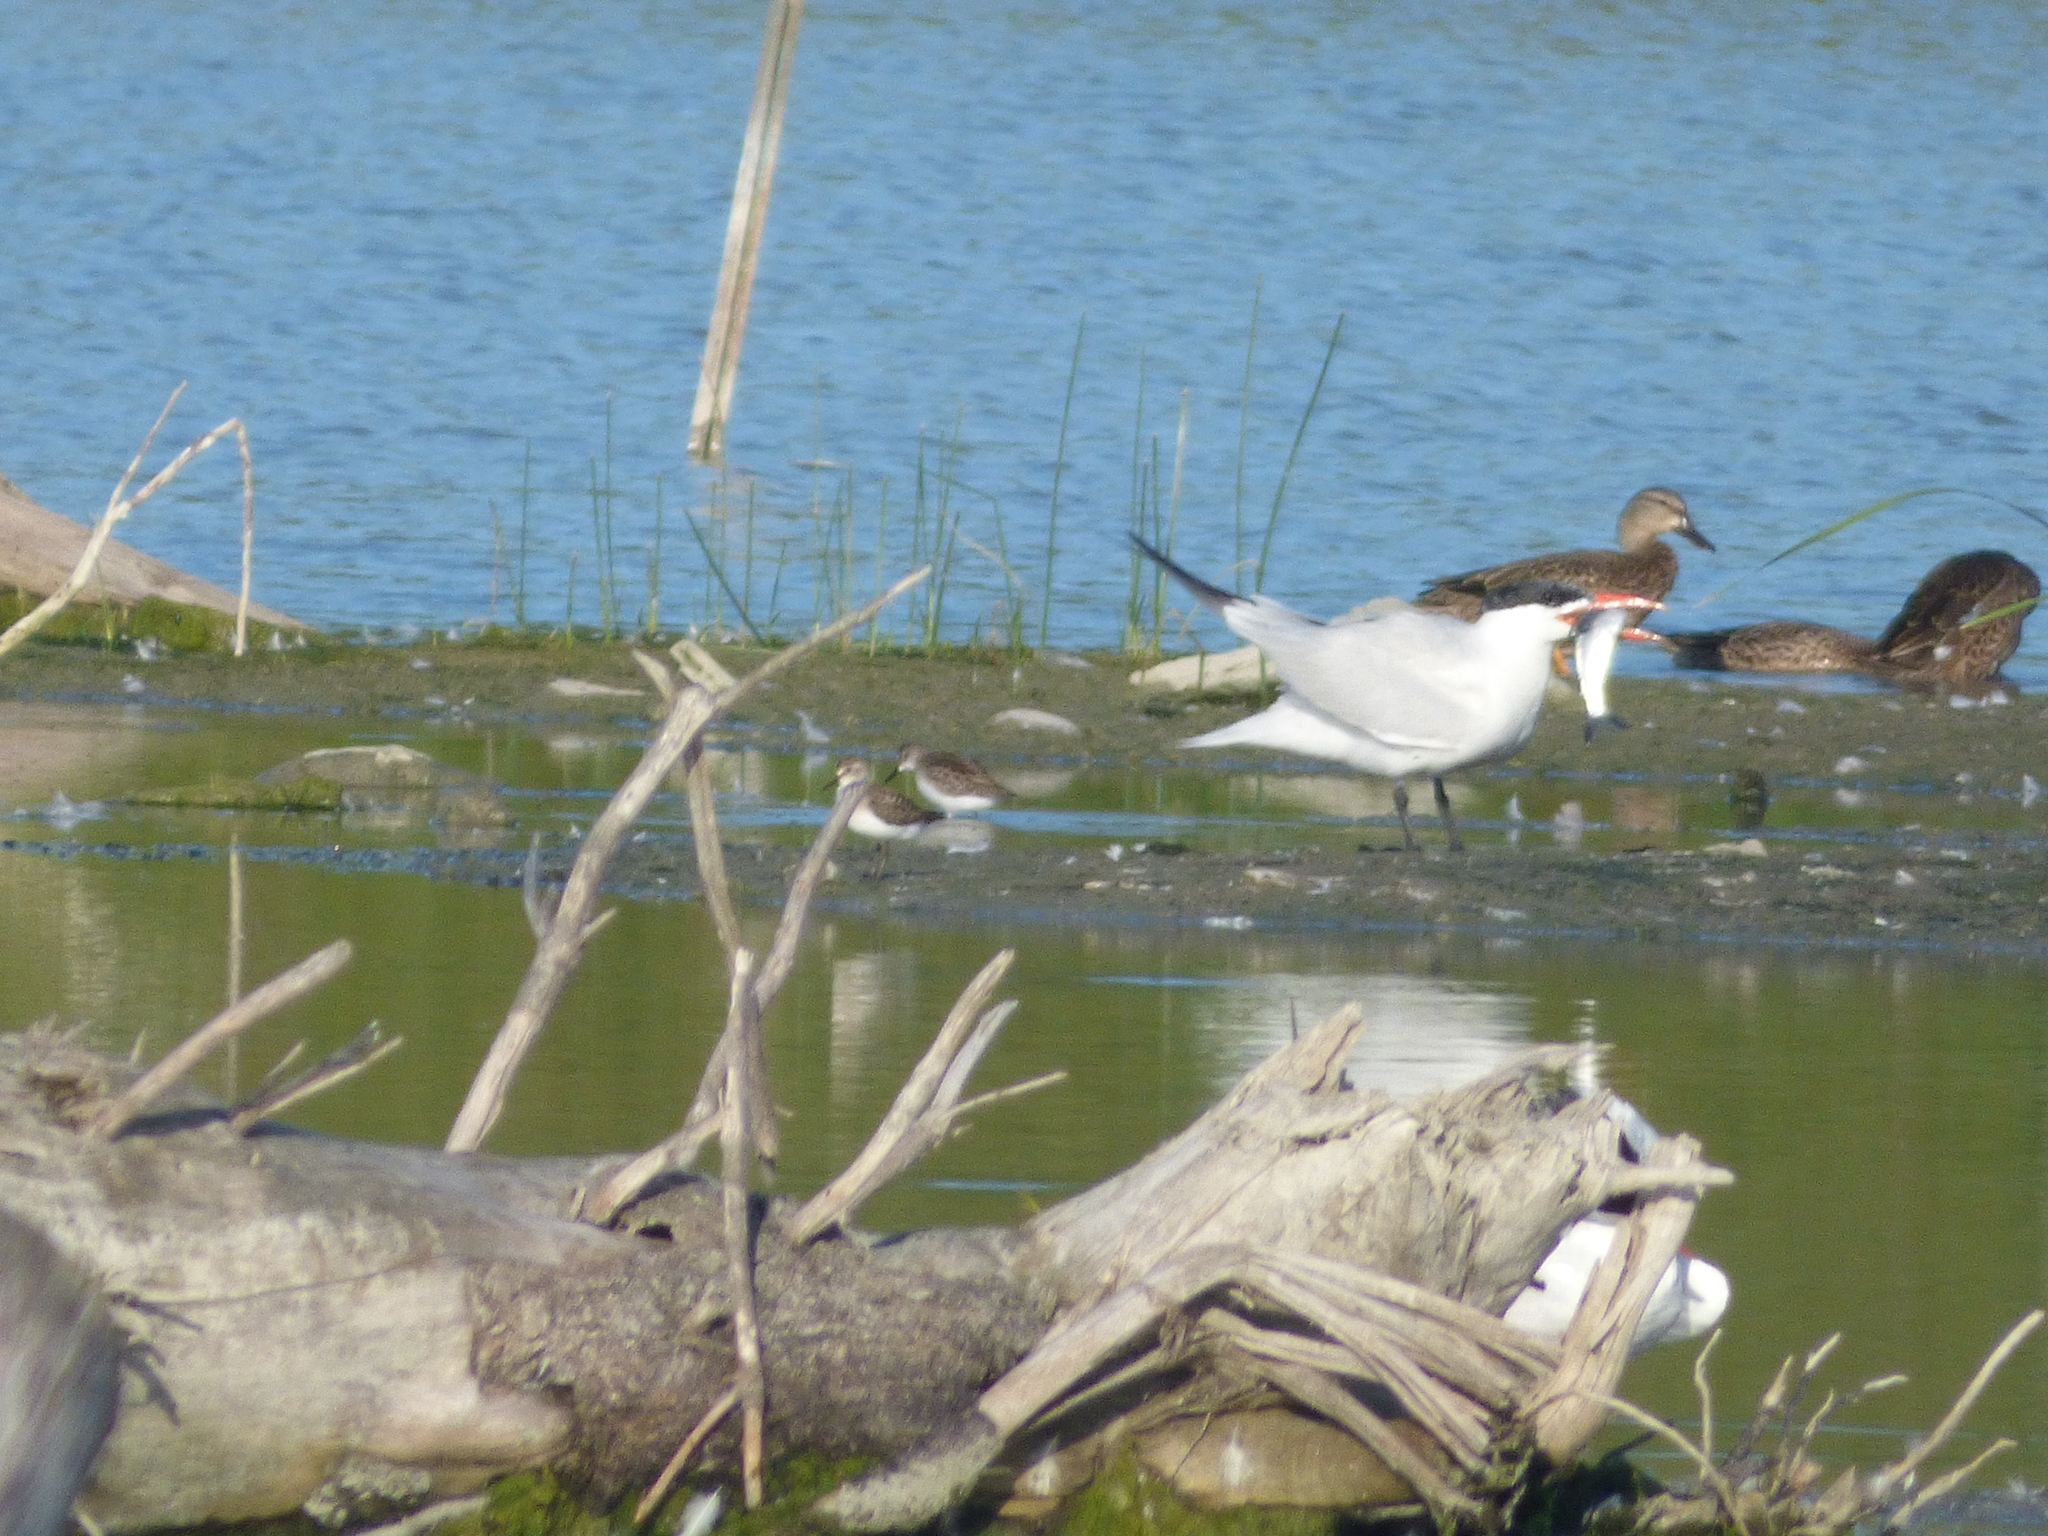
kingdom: Animalia
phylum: Chordata
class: Aves
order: Charadriiformes
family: Scolopacidae
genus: Calidris
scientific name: Calidris pusilla
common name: Semipalmated sandpiper
